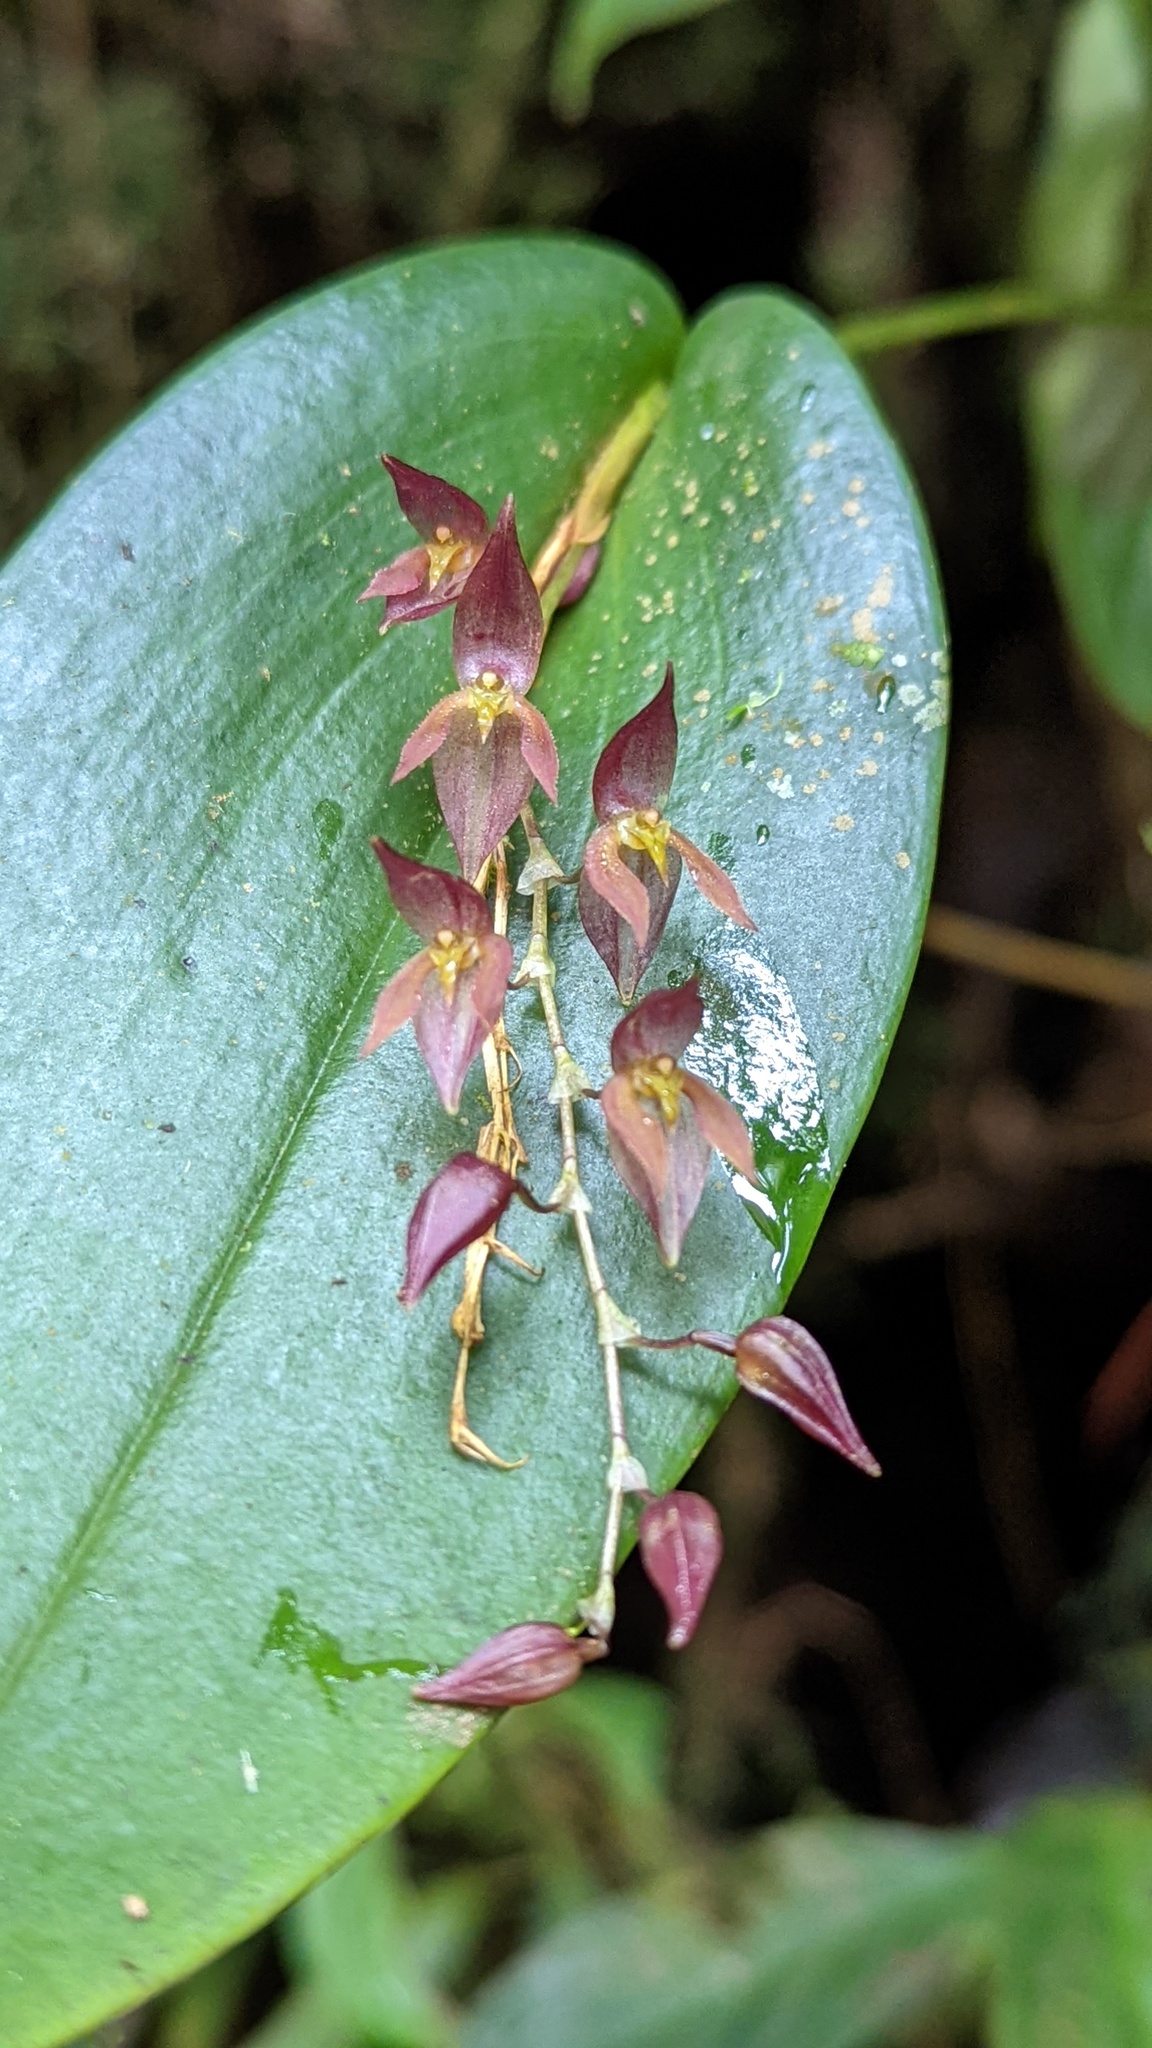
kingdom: Plantae
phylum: Tracheophyta
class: Liliopsida
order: Asparagales
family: Orchidaceae
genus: Pleurothallis
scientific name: Pleurothallis rowleei
